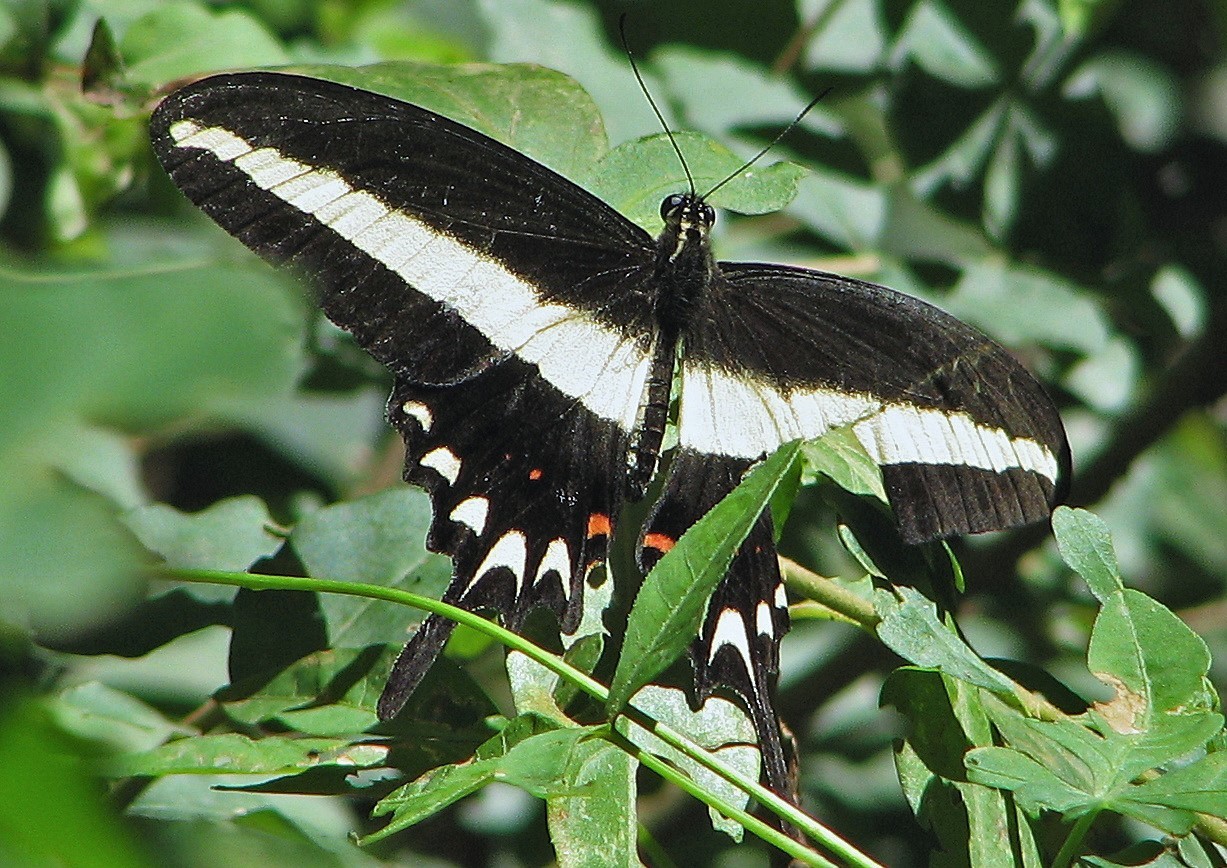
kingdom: Animalia
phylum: Arthropoda
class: Insecta
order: Lepidoptera
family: Papilionidae
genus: Heraclides
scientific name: Heraclides hectorides
